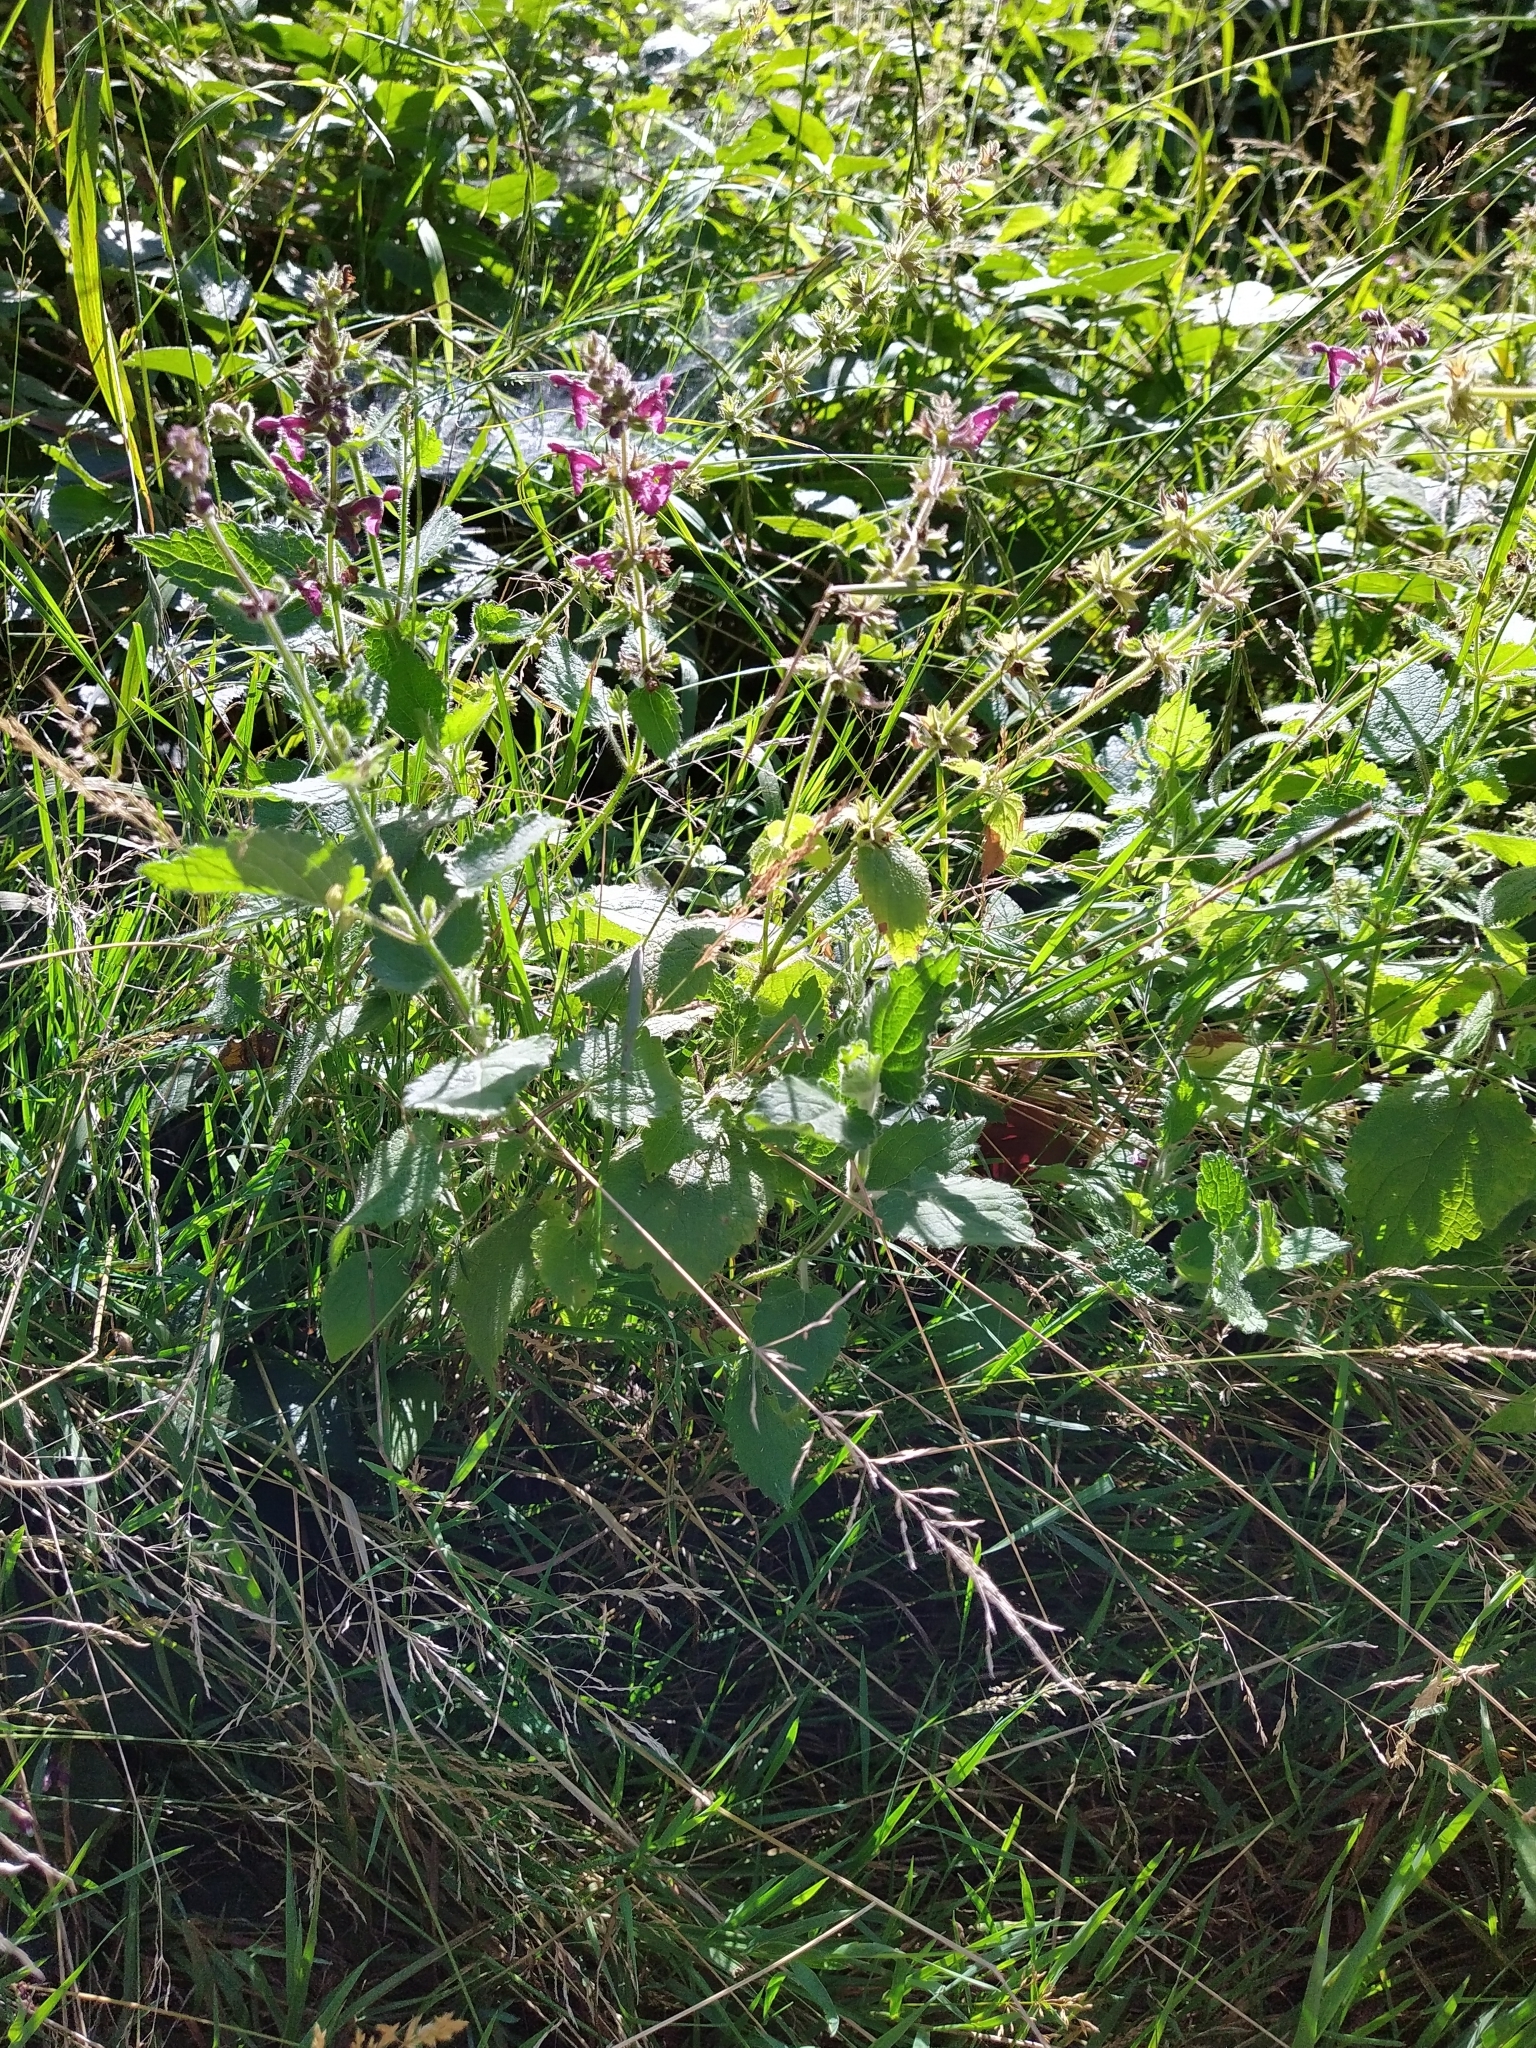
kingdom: Plantae
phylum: Tracheophyta
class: Magnoliopsida
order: Lamiales
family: Lamiaceae
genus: Stachys
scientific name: Stachys sylvatica
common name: Hedge woundwort
